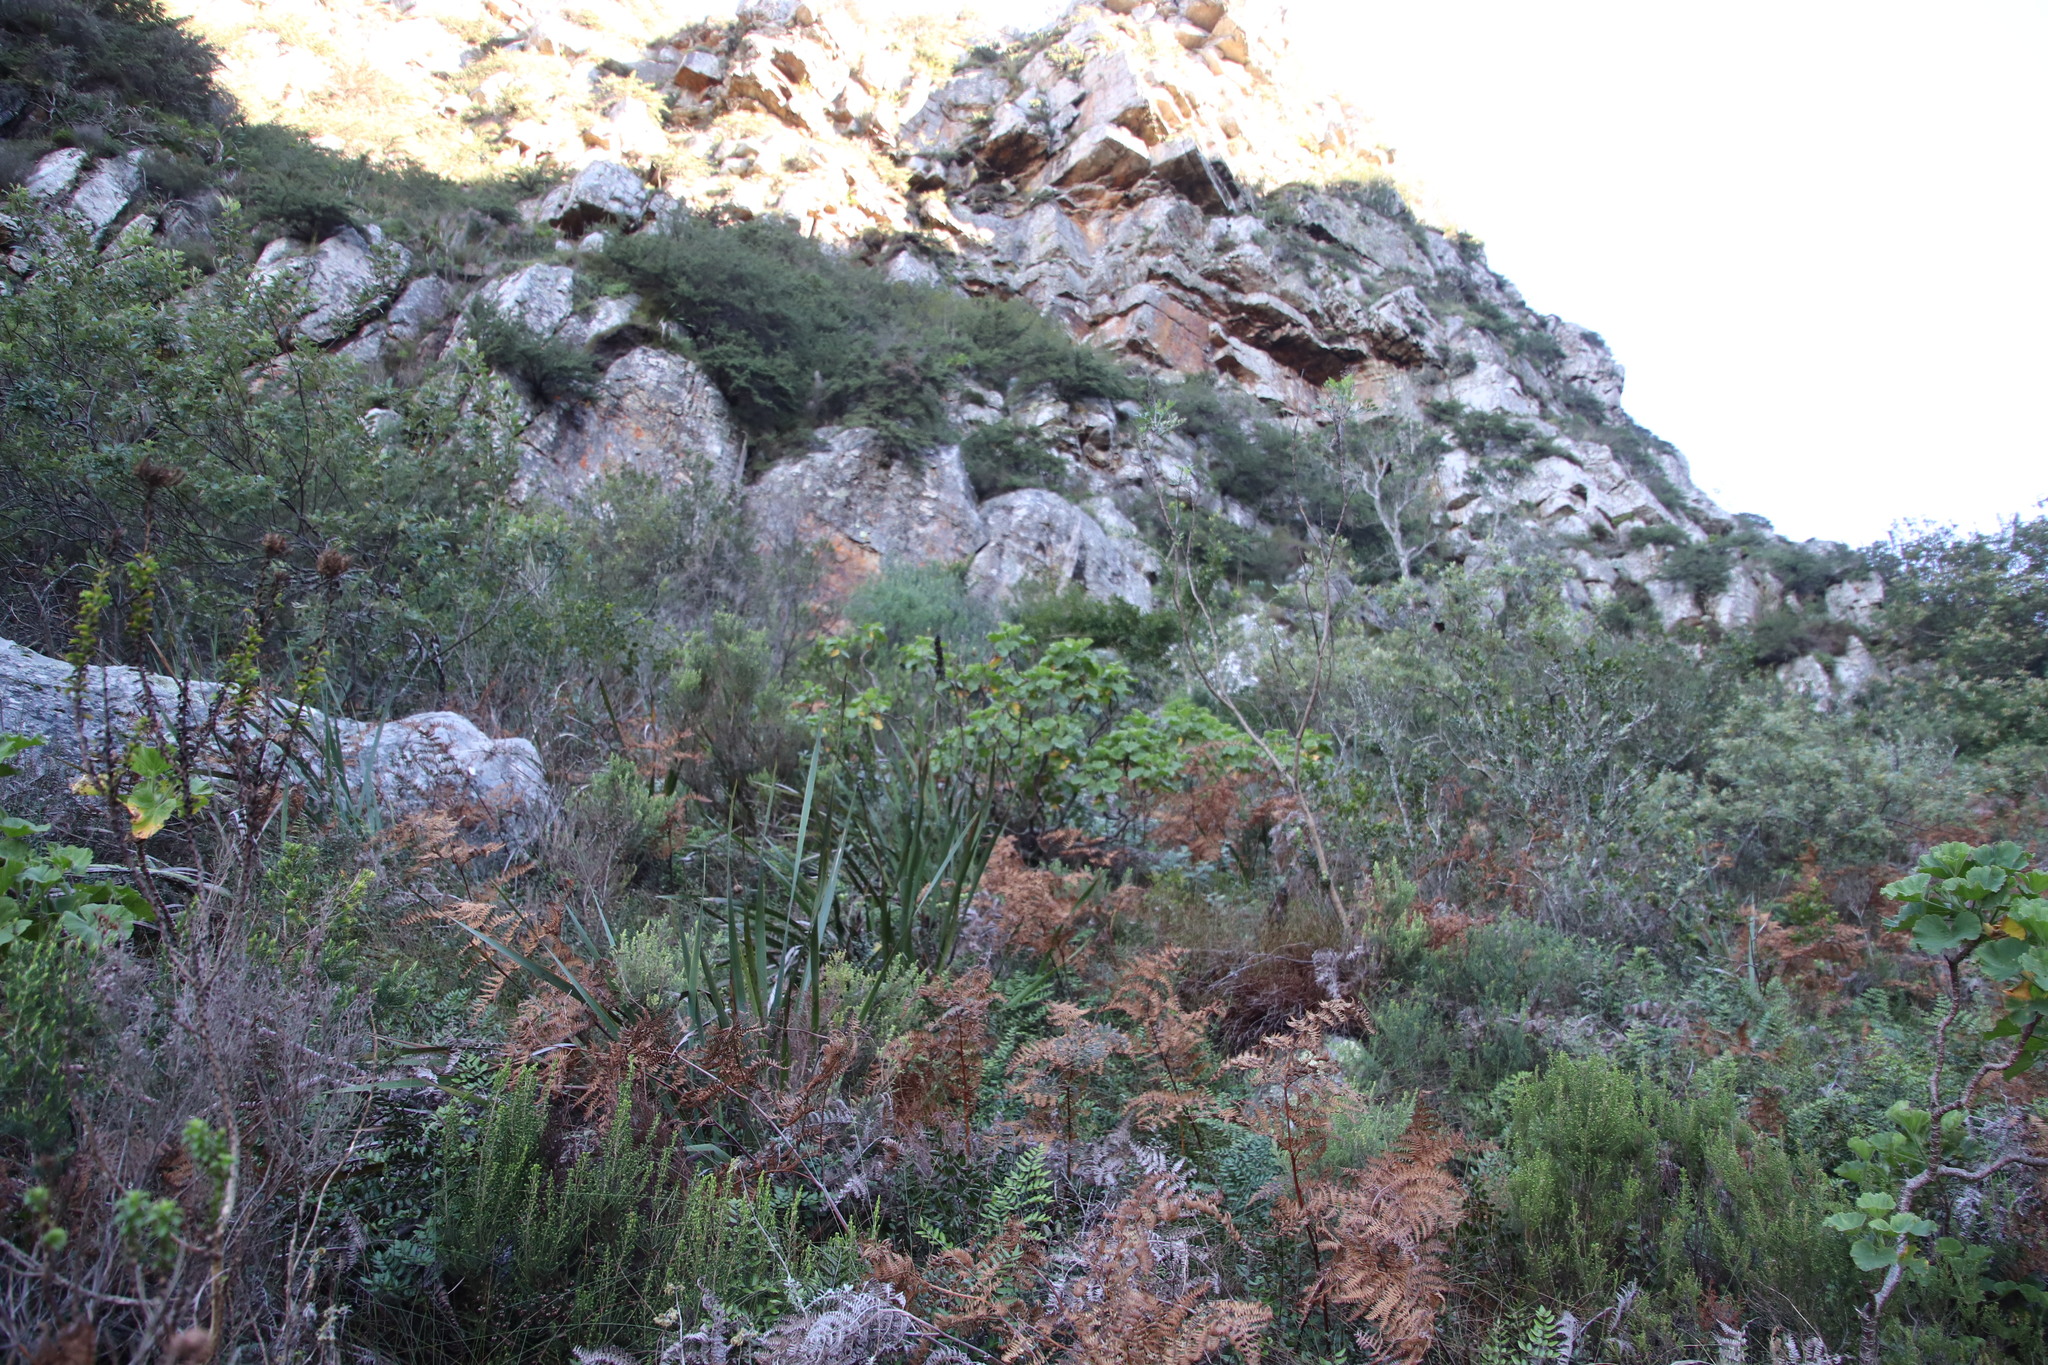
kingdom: Plantae
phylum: Tracheophyta
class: Magnoliopsida
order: Geraniales
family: Geraniaceae
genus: Pelargonium
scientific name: Pelargonium cucullatum
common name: Tree pelargonium
